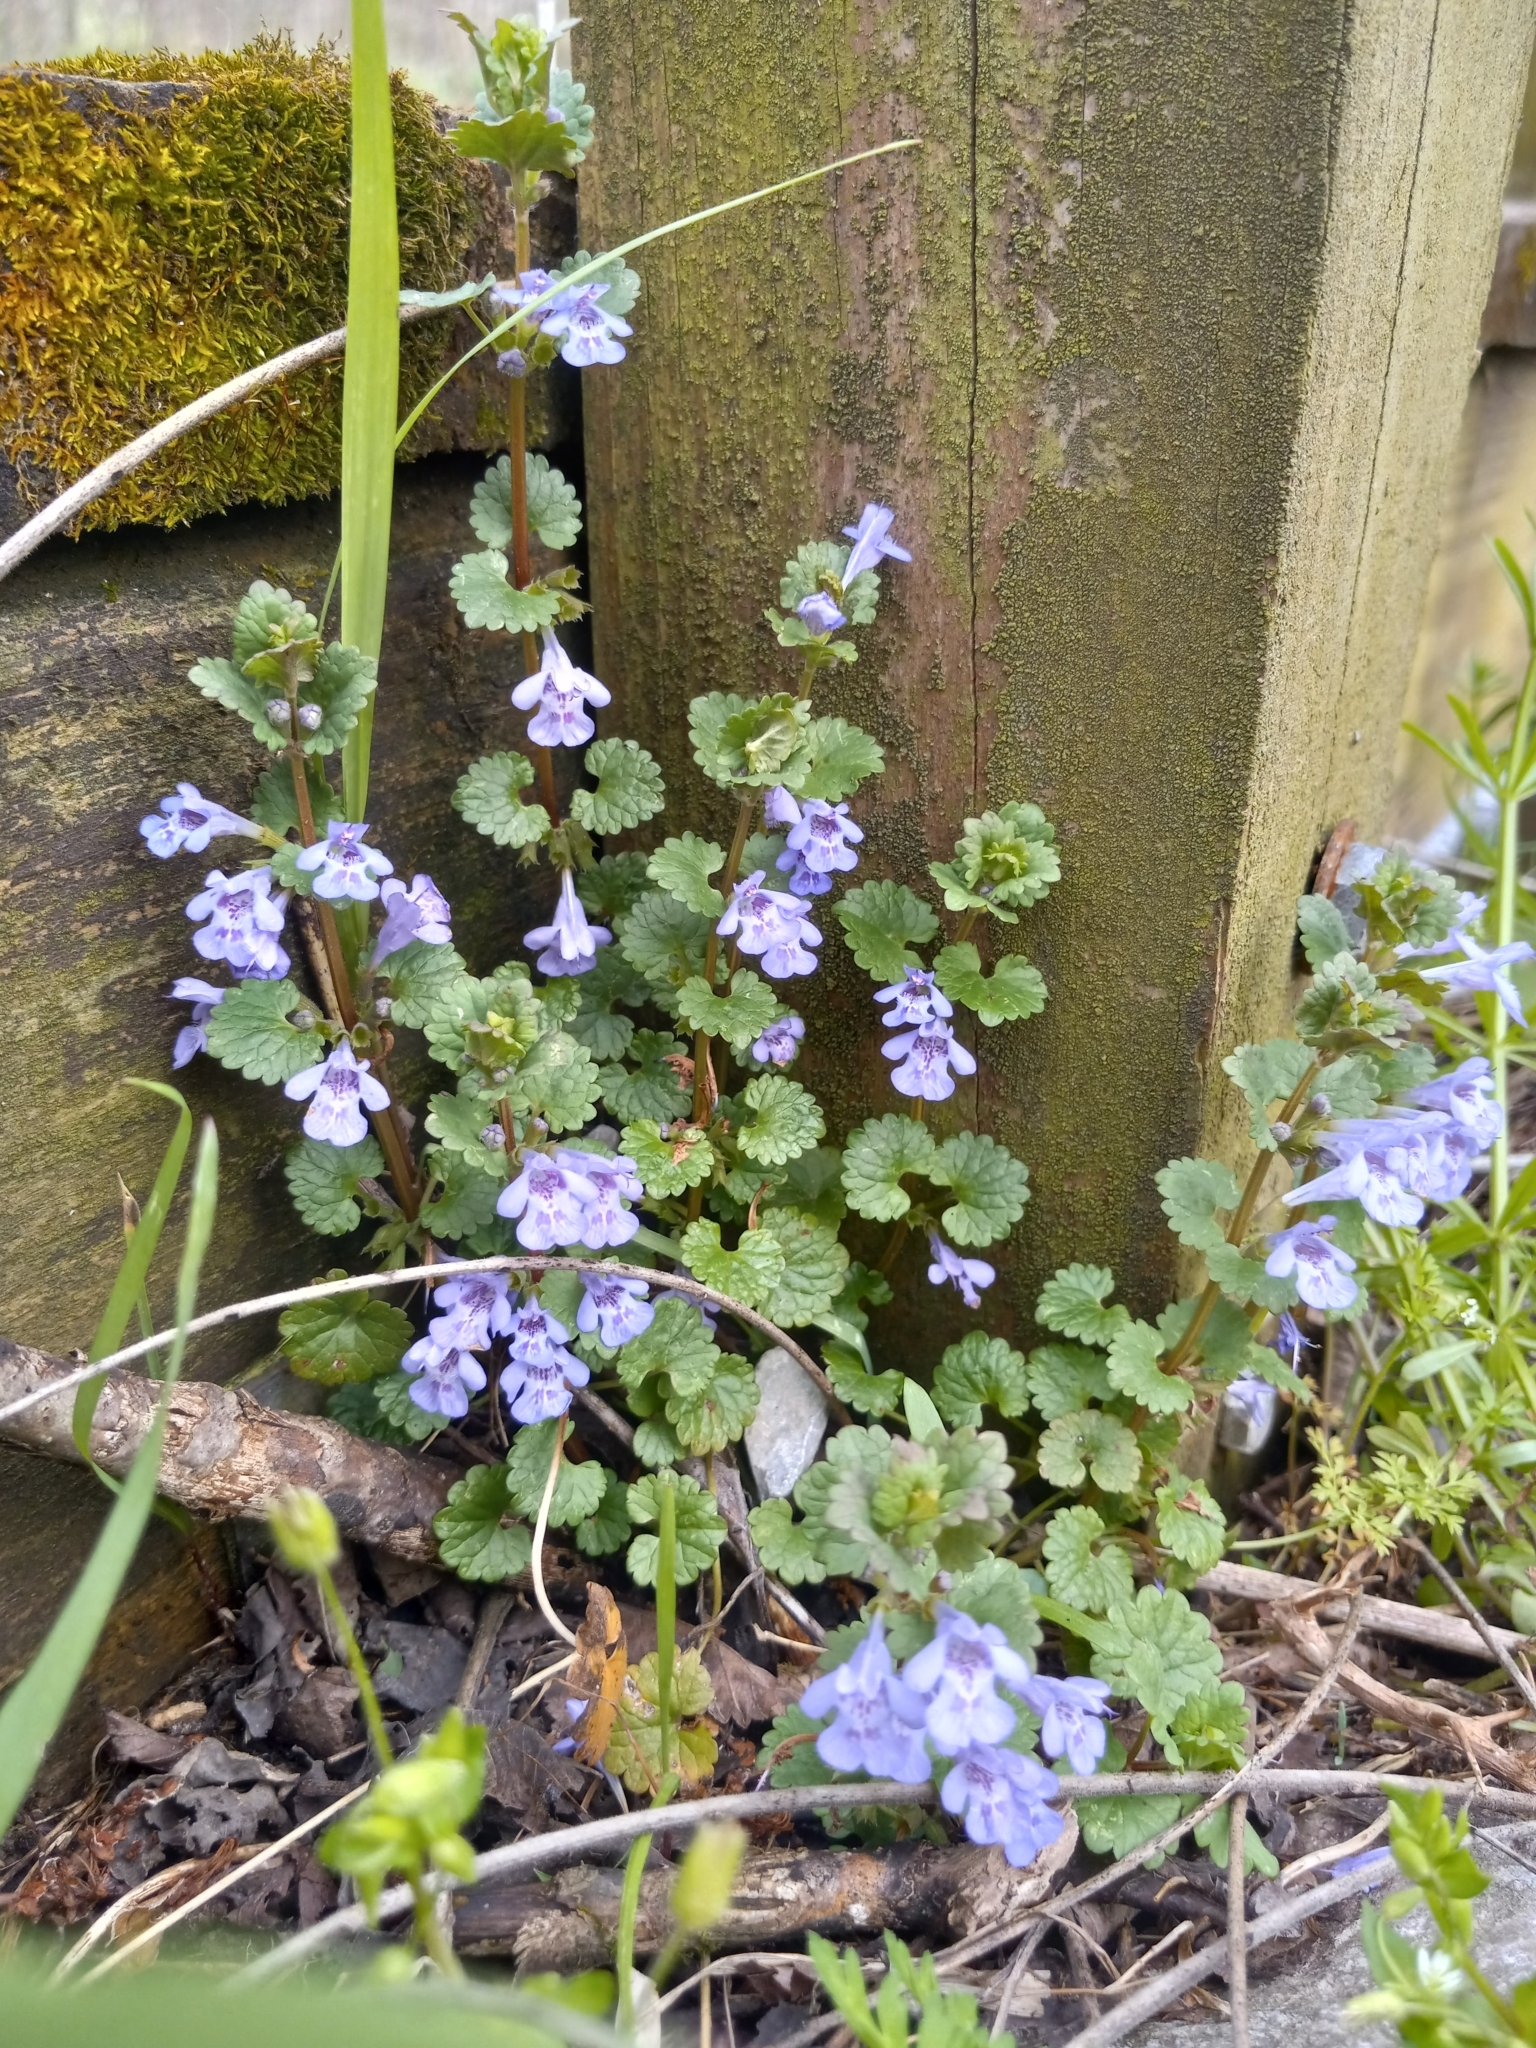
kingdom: Plantae
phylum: Tracheophyta
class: Magnoliopsida
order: Lamiales
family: Lamiaceae
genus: Glechoma
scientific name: Glechoma hederacea
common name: Ground ivy
